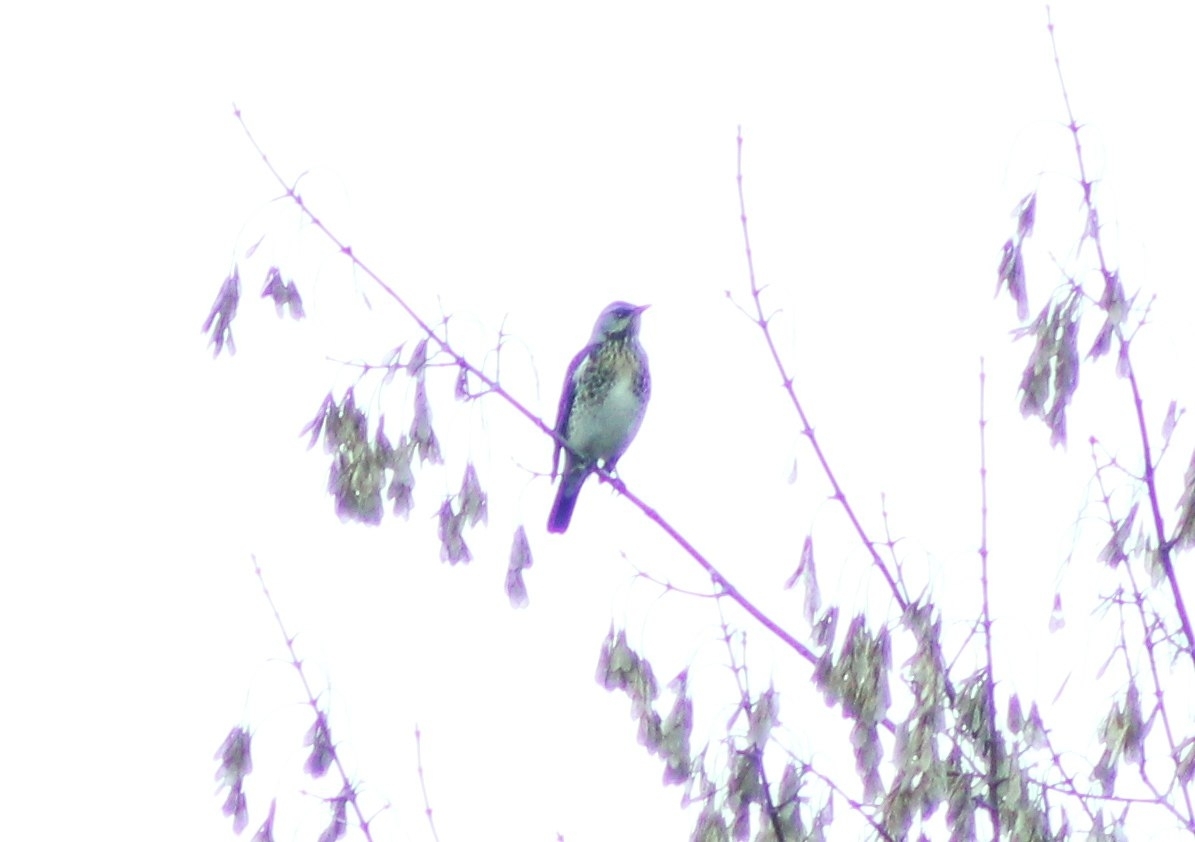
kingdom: Animalia
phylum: Chordata
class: Aves
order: Passeriformes
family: Turdidae
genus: Turdus
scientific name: Turdus pilaris
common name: Fieldfare
